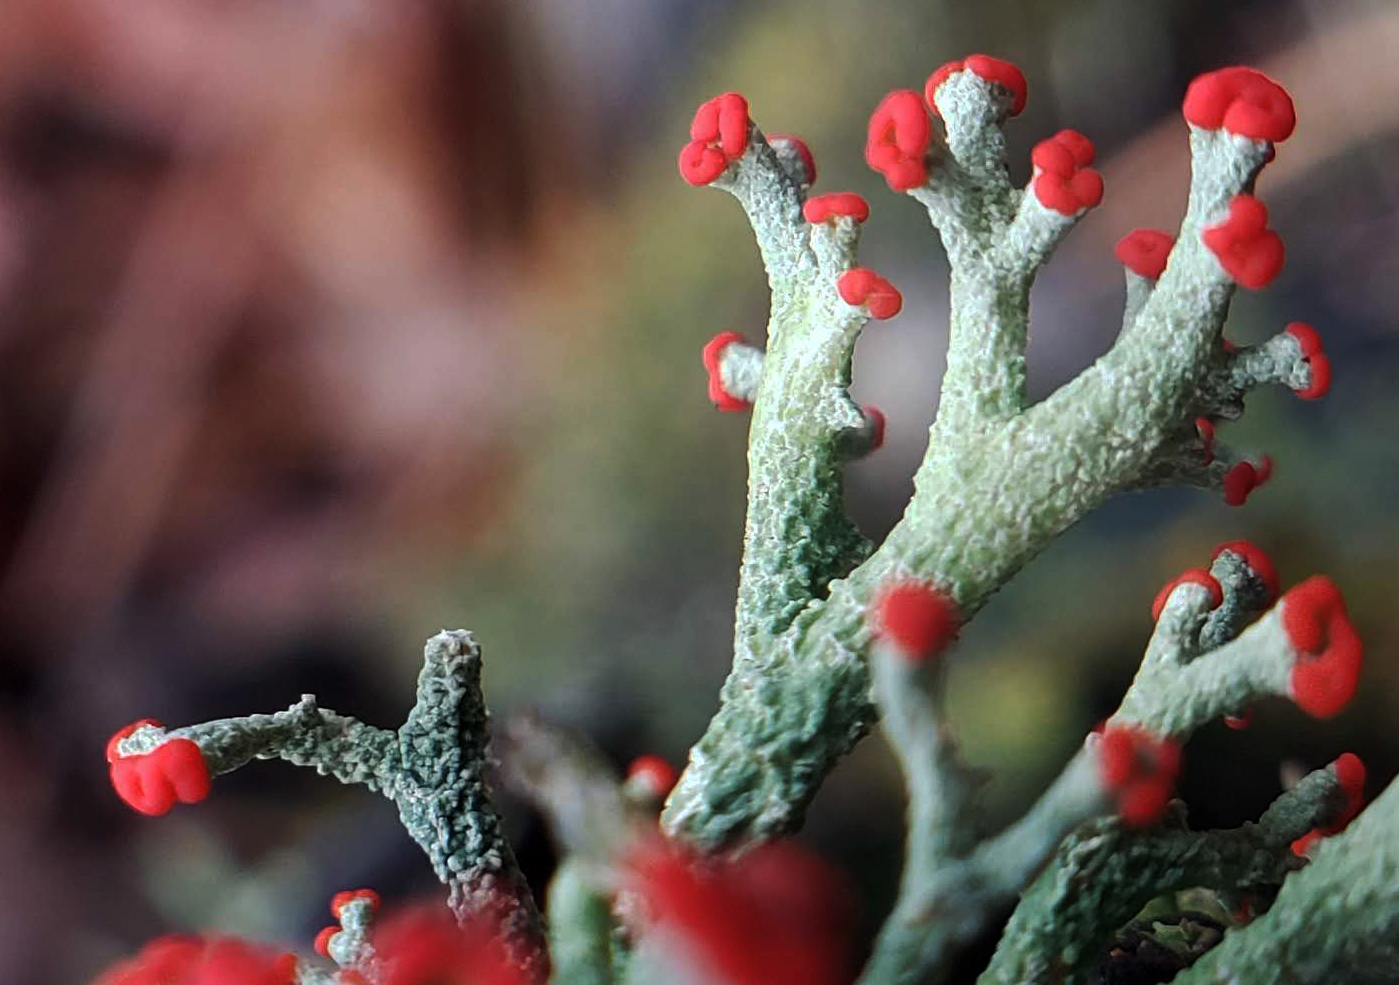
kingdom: Fungi
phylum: Ascomycota
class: Lecanoromycetes
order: Lecanorales
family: Cladoniaceae
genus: Cladonia
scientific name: Cladonia cristatella
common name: British soldier lichen
